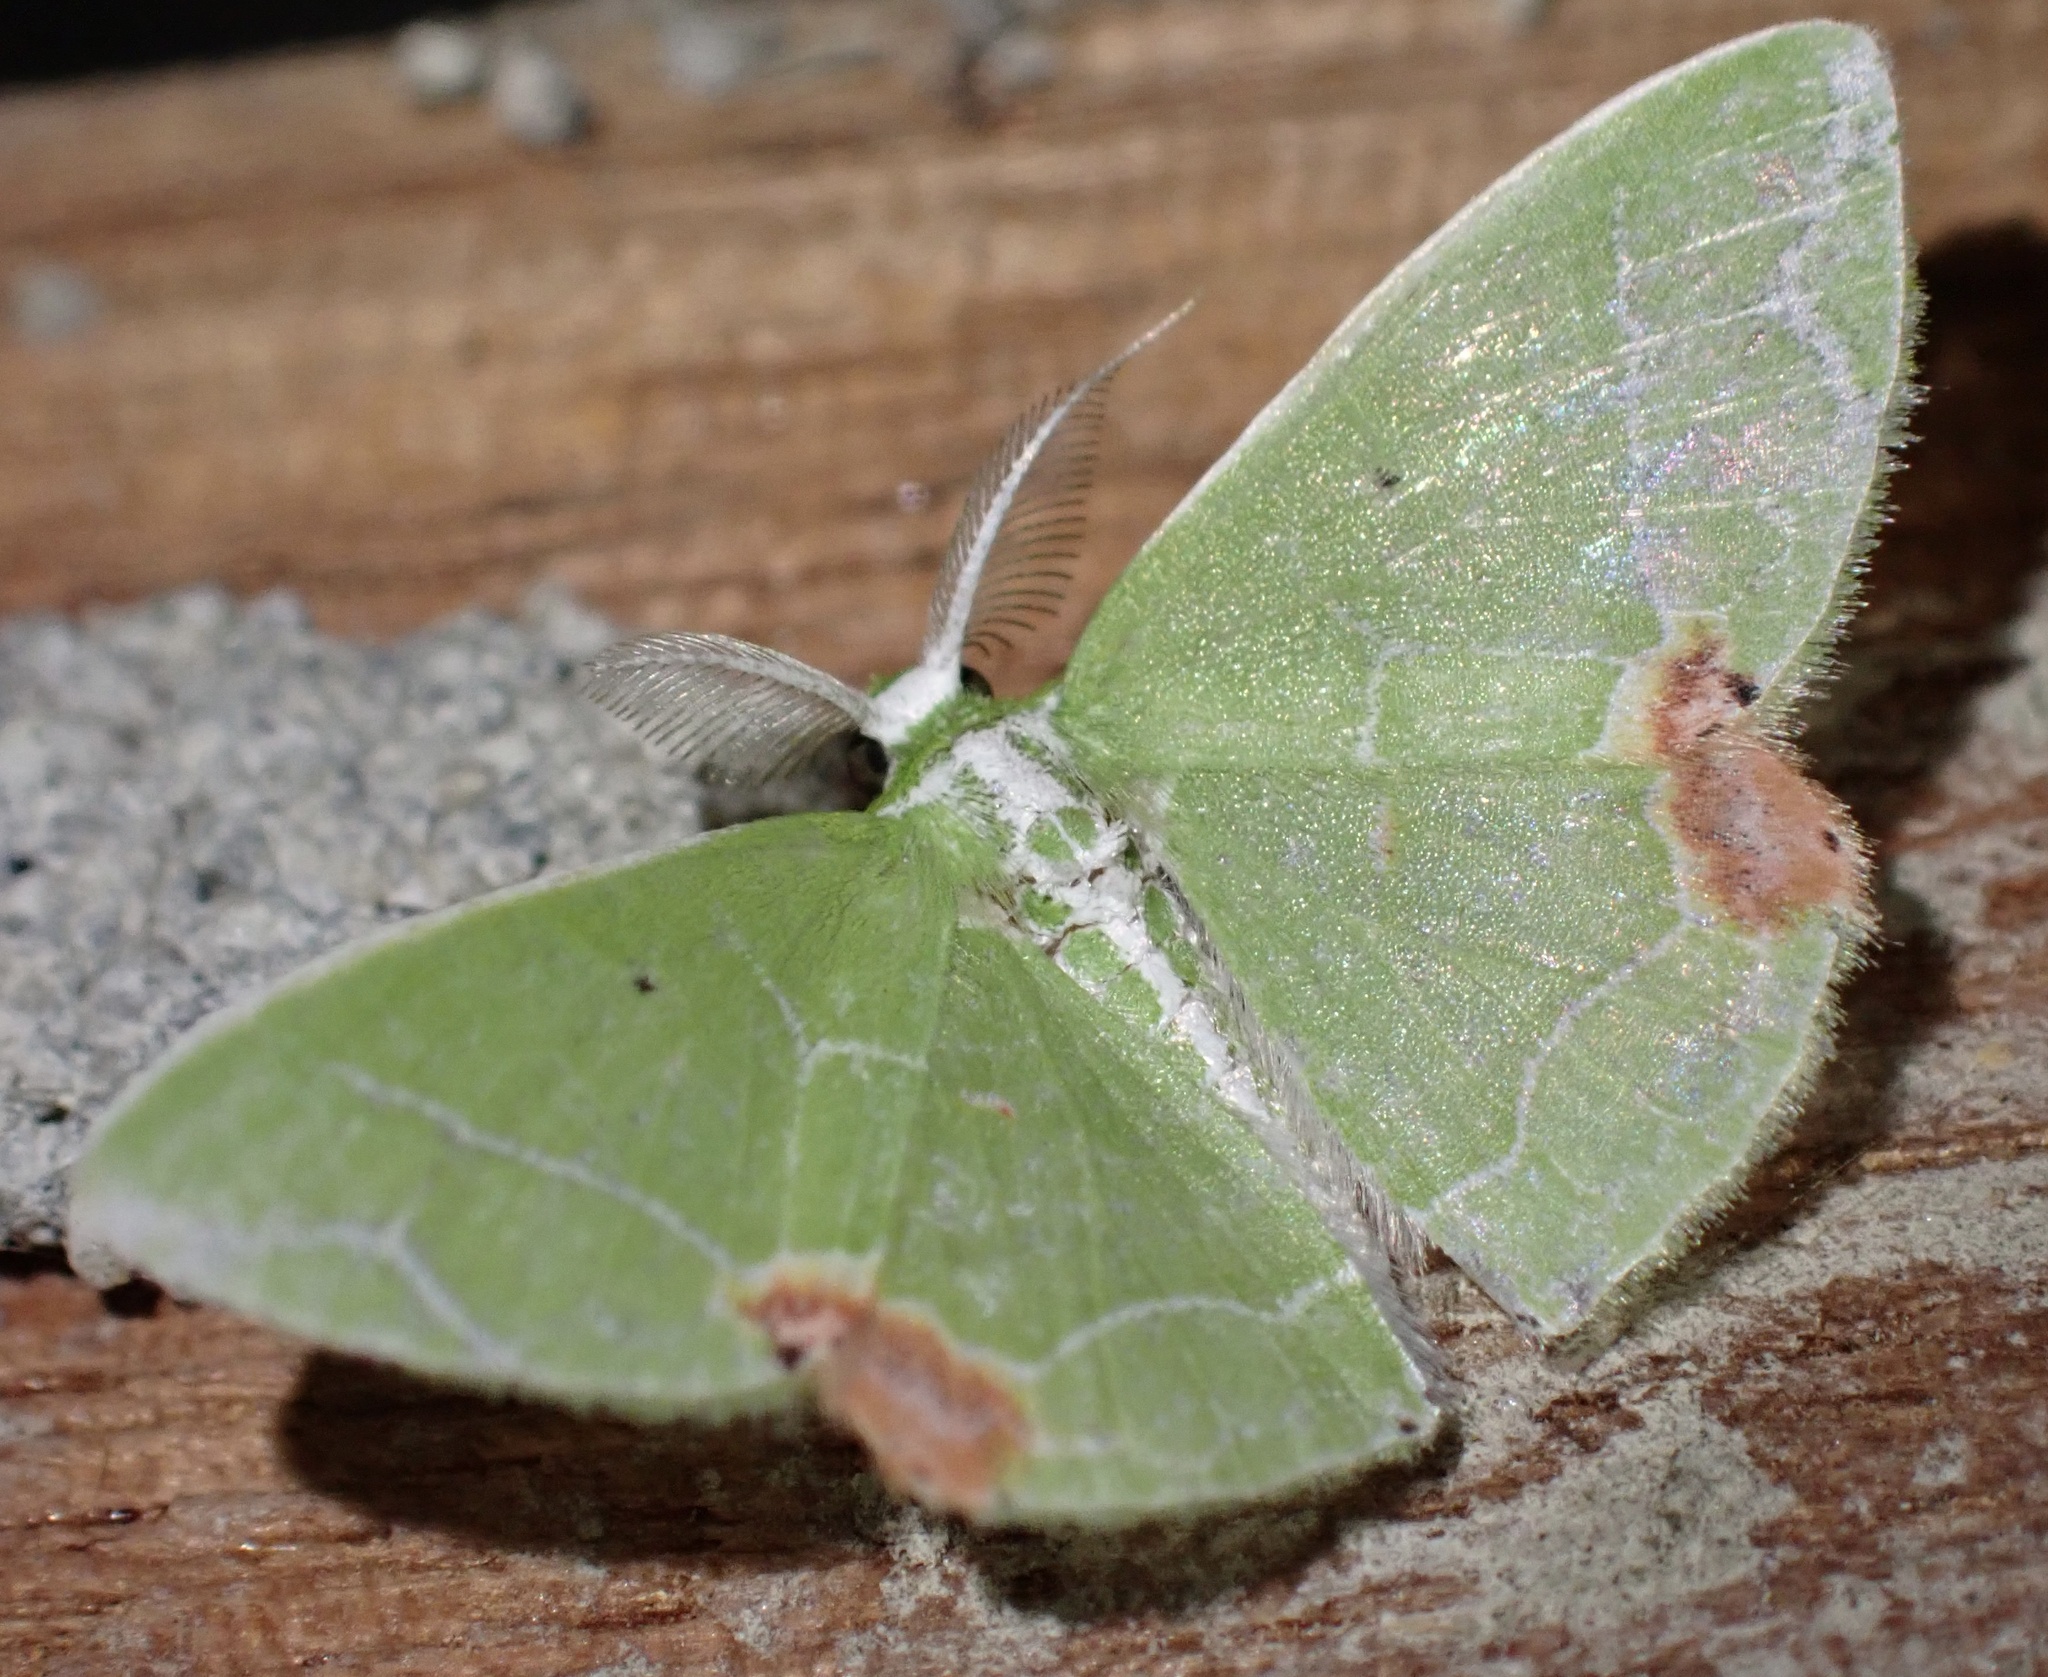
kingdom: Animalia
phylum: Arthropoda
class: Insecta
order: Lepidoptera
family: Geometridae
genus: Protuliocnemis
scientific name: Protuliocnemis biplagiata
